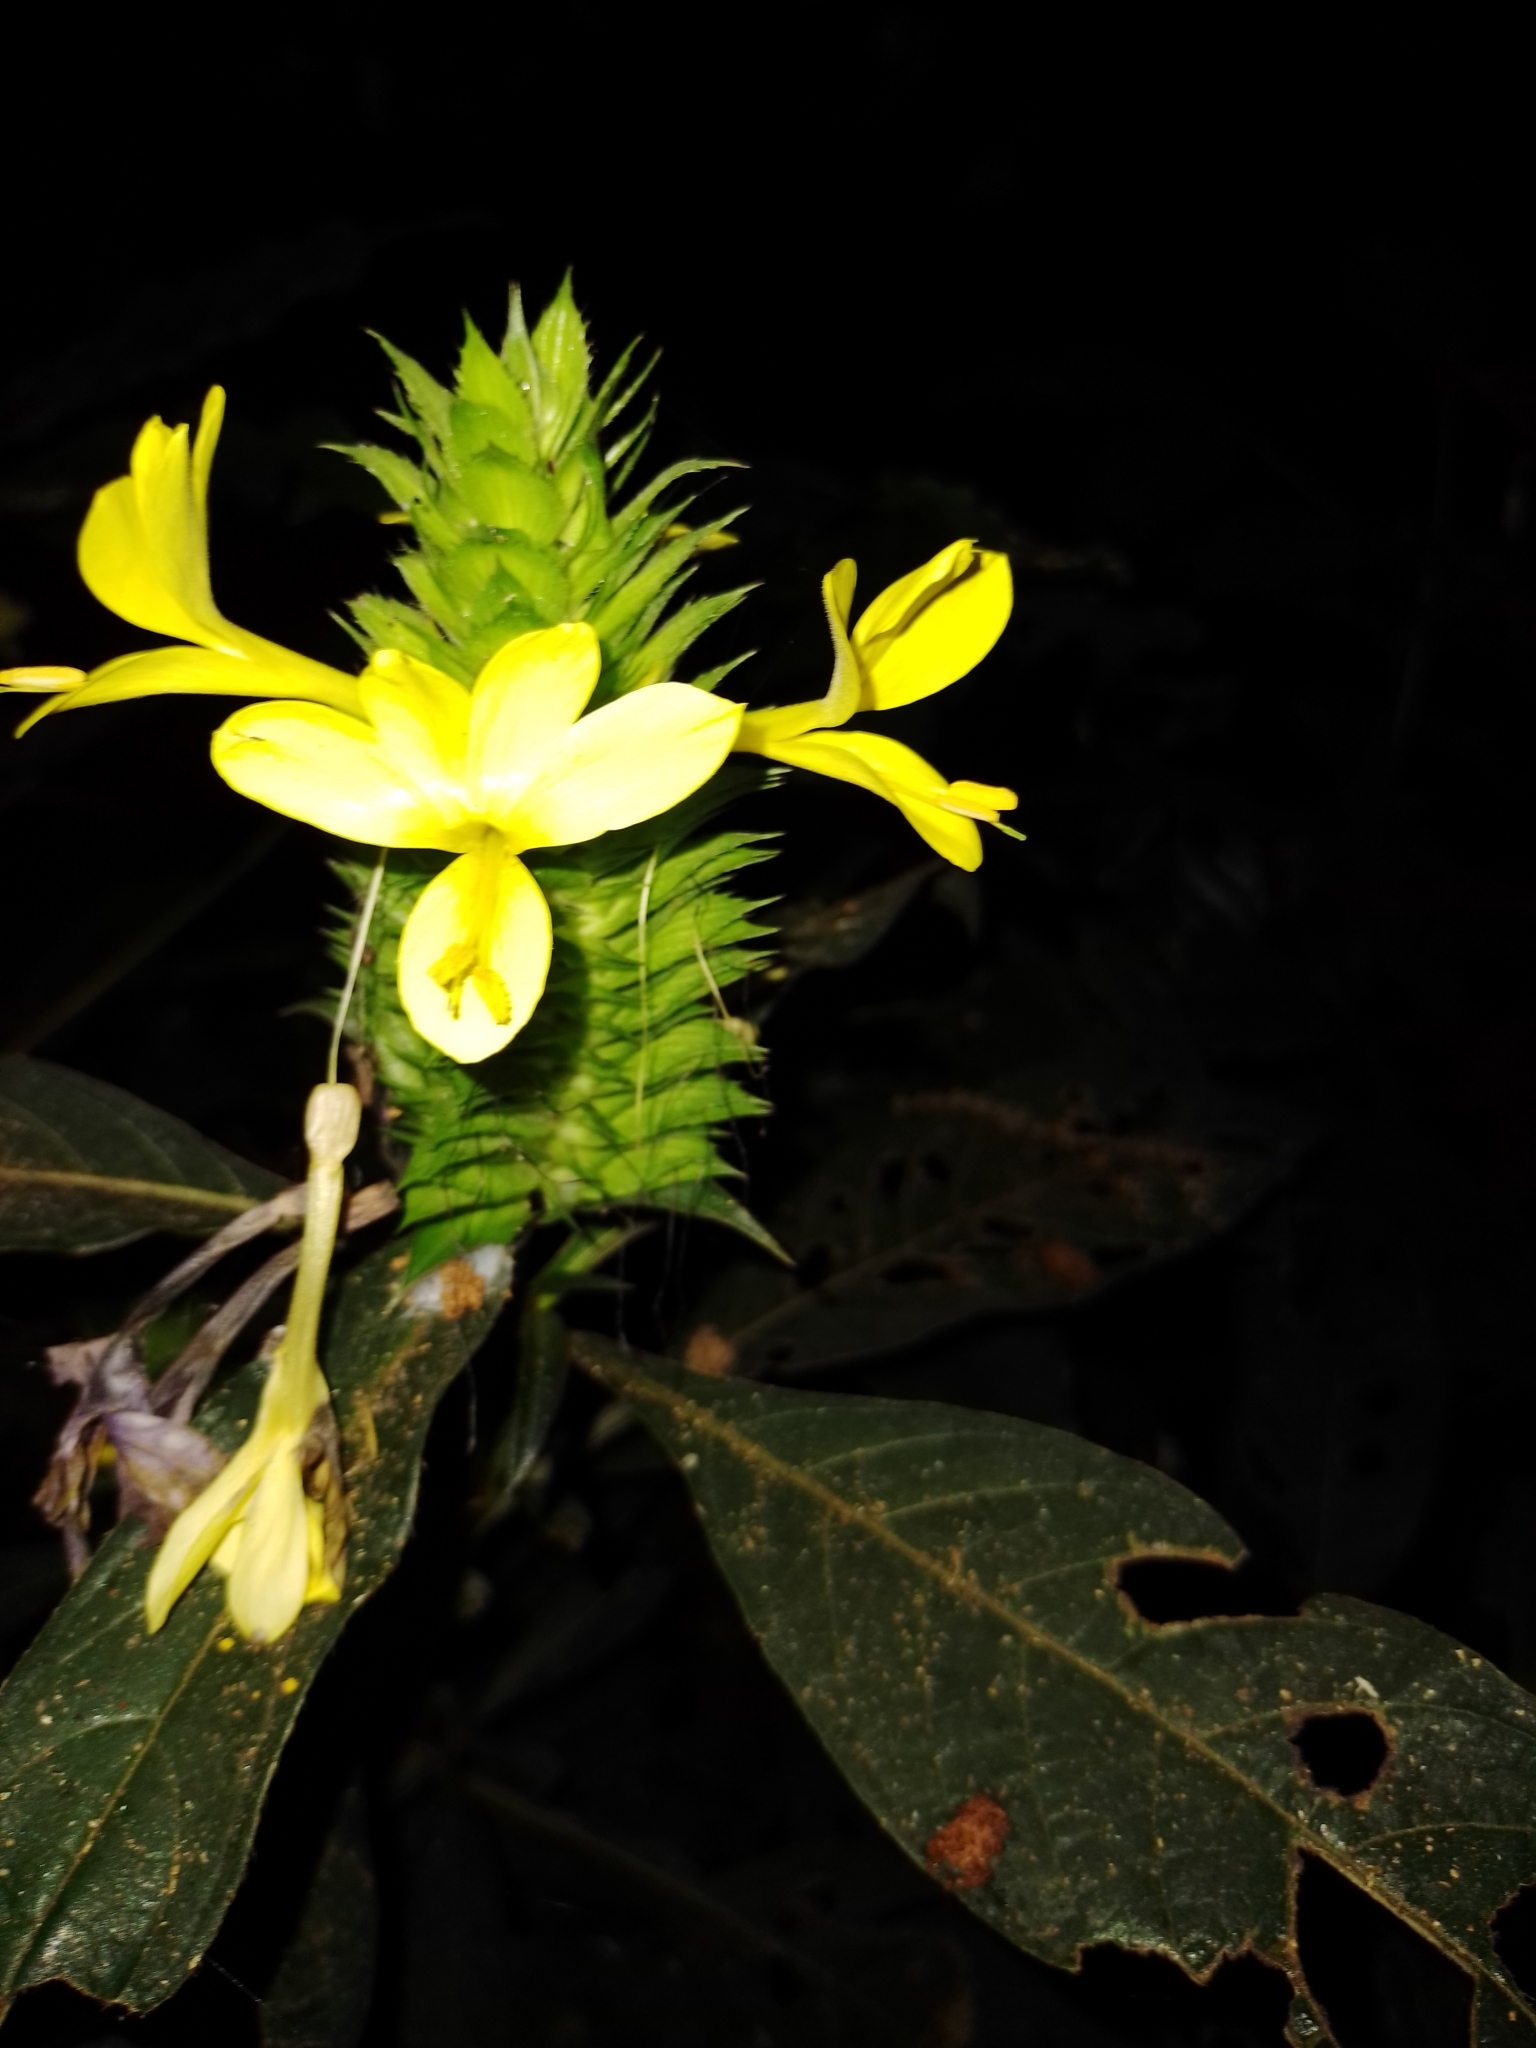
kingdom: Plantae
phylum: Tracheophyta
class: Magnoliopsida
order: Lamiales
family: Acanthaceae
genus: Barleria
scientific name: Barleria oenotheroides
